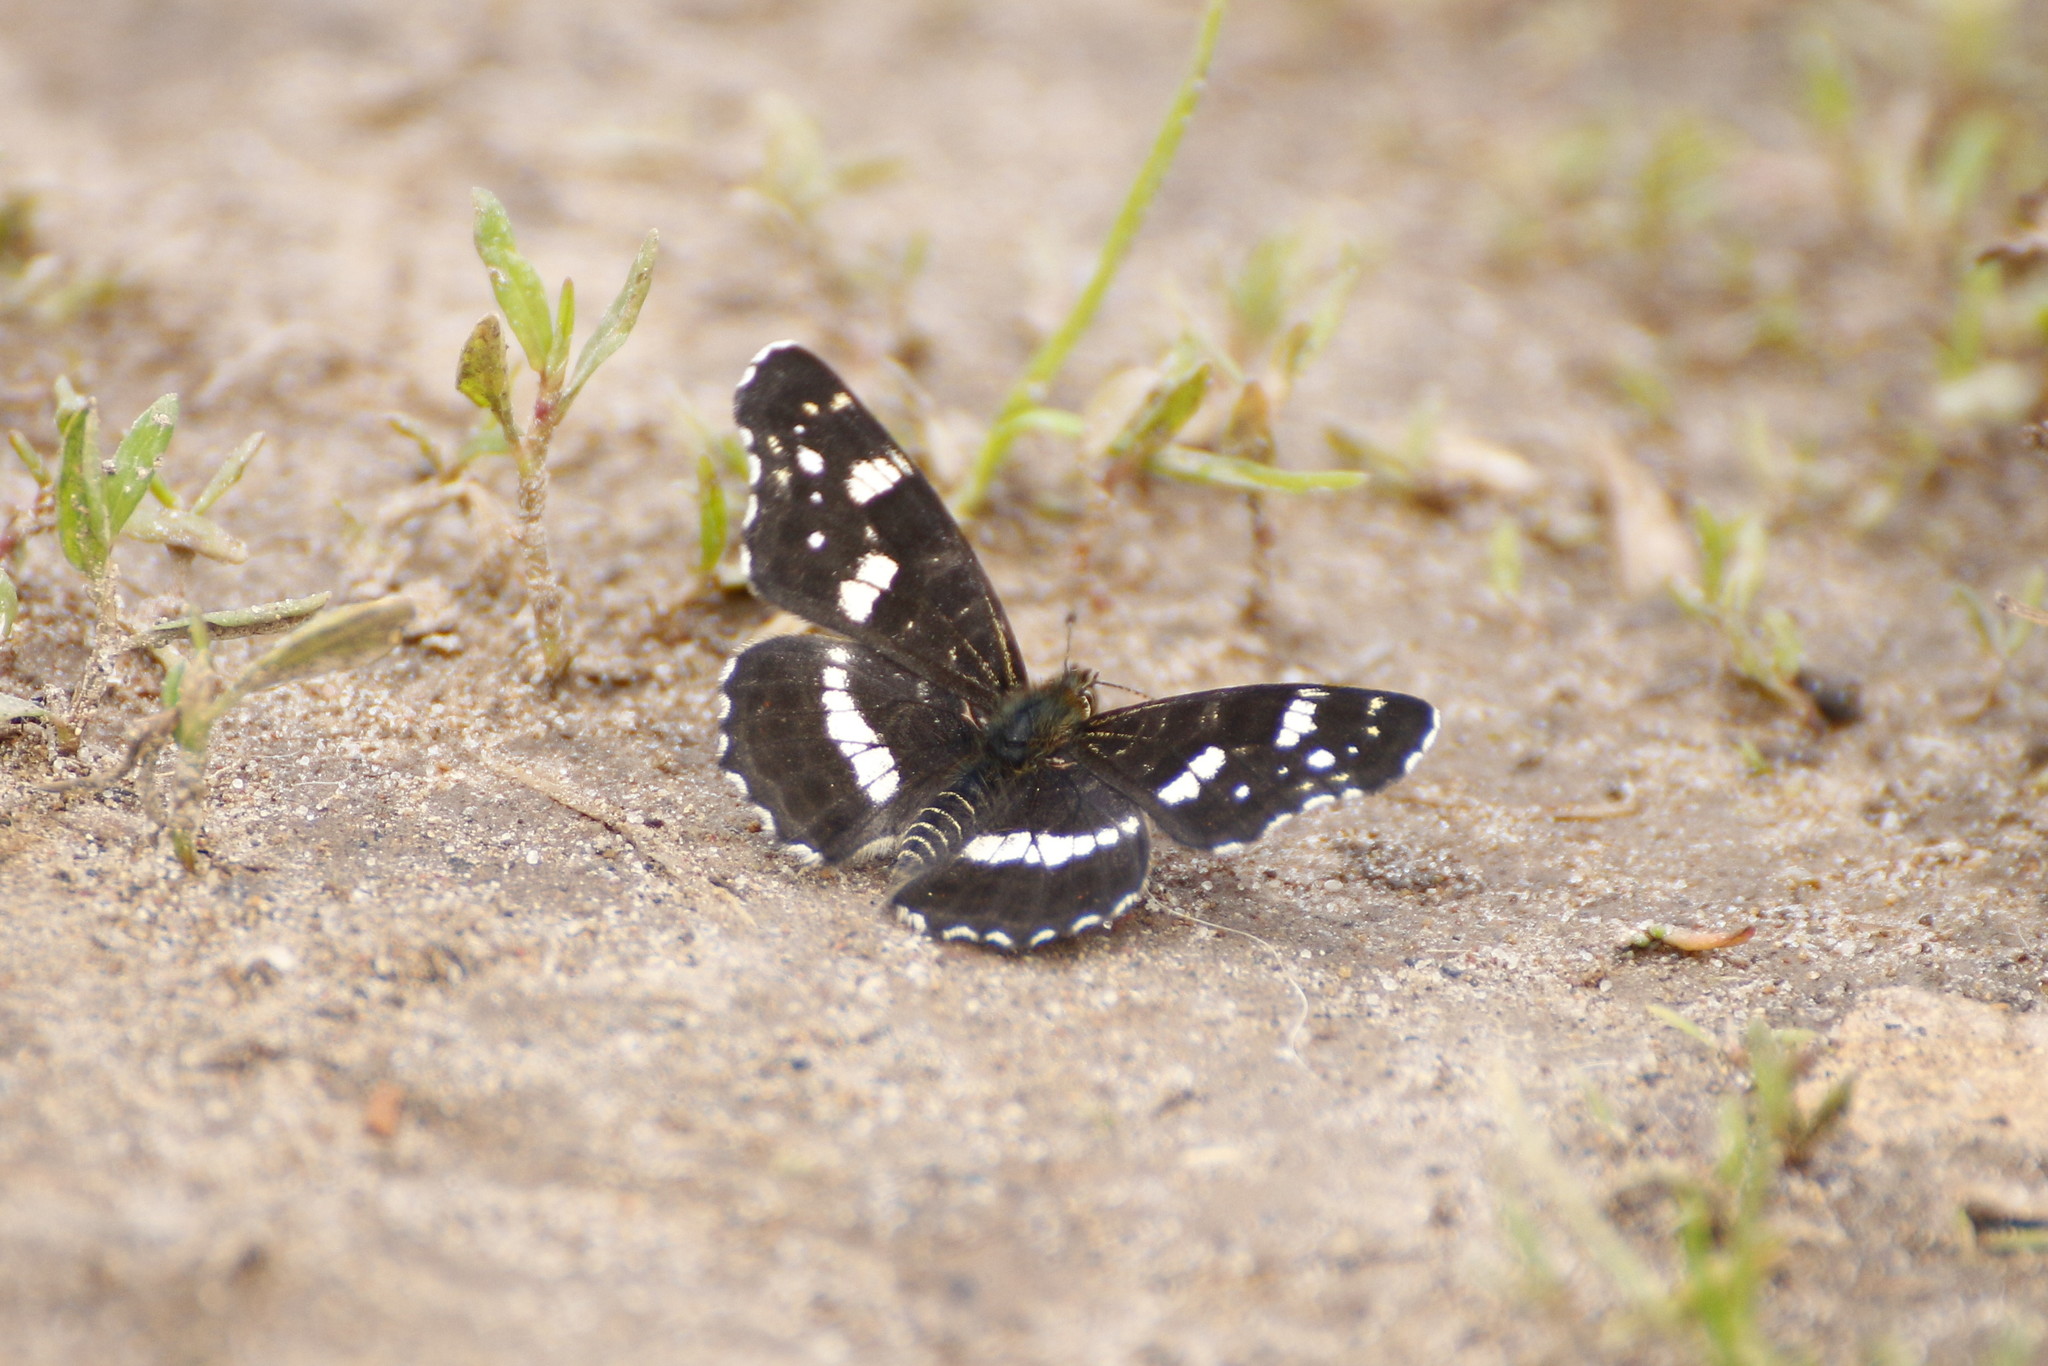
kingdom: Animalia
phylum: Arthropoda
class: Insecta
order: Lepidoptera
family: Nymphalidae
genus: Araschnia
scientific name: Araschnia levana
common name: Map butterfly
